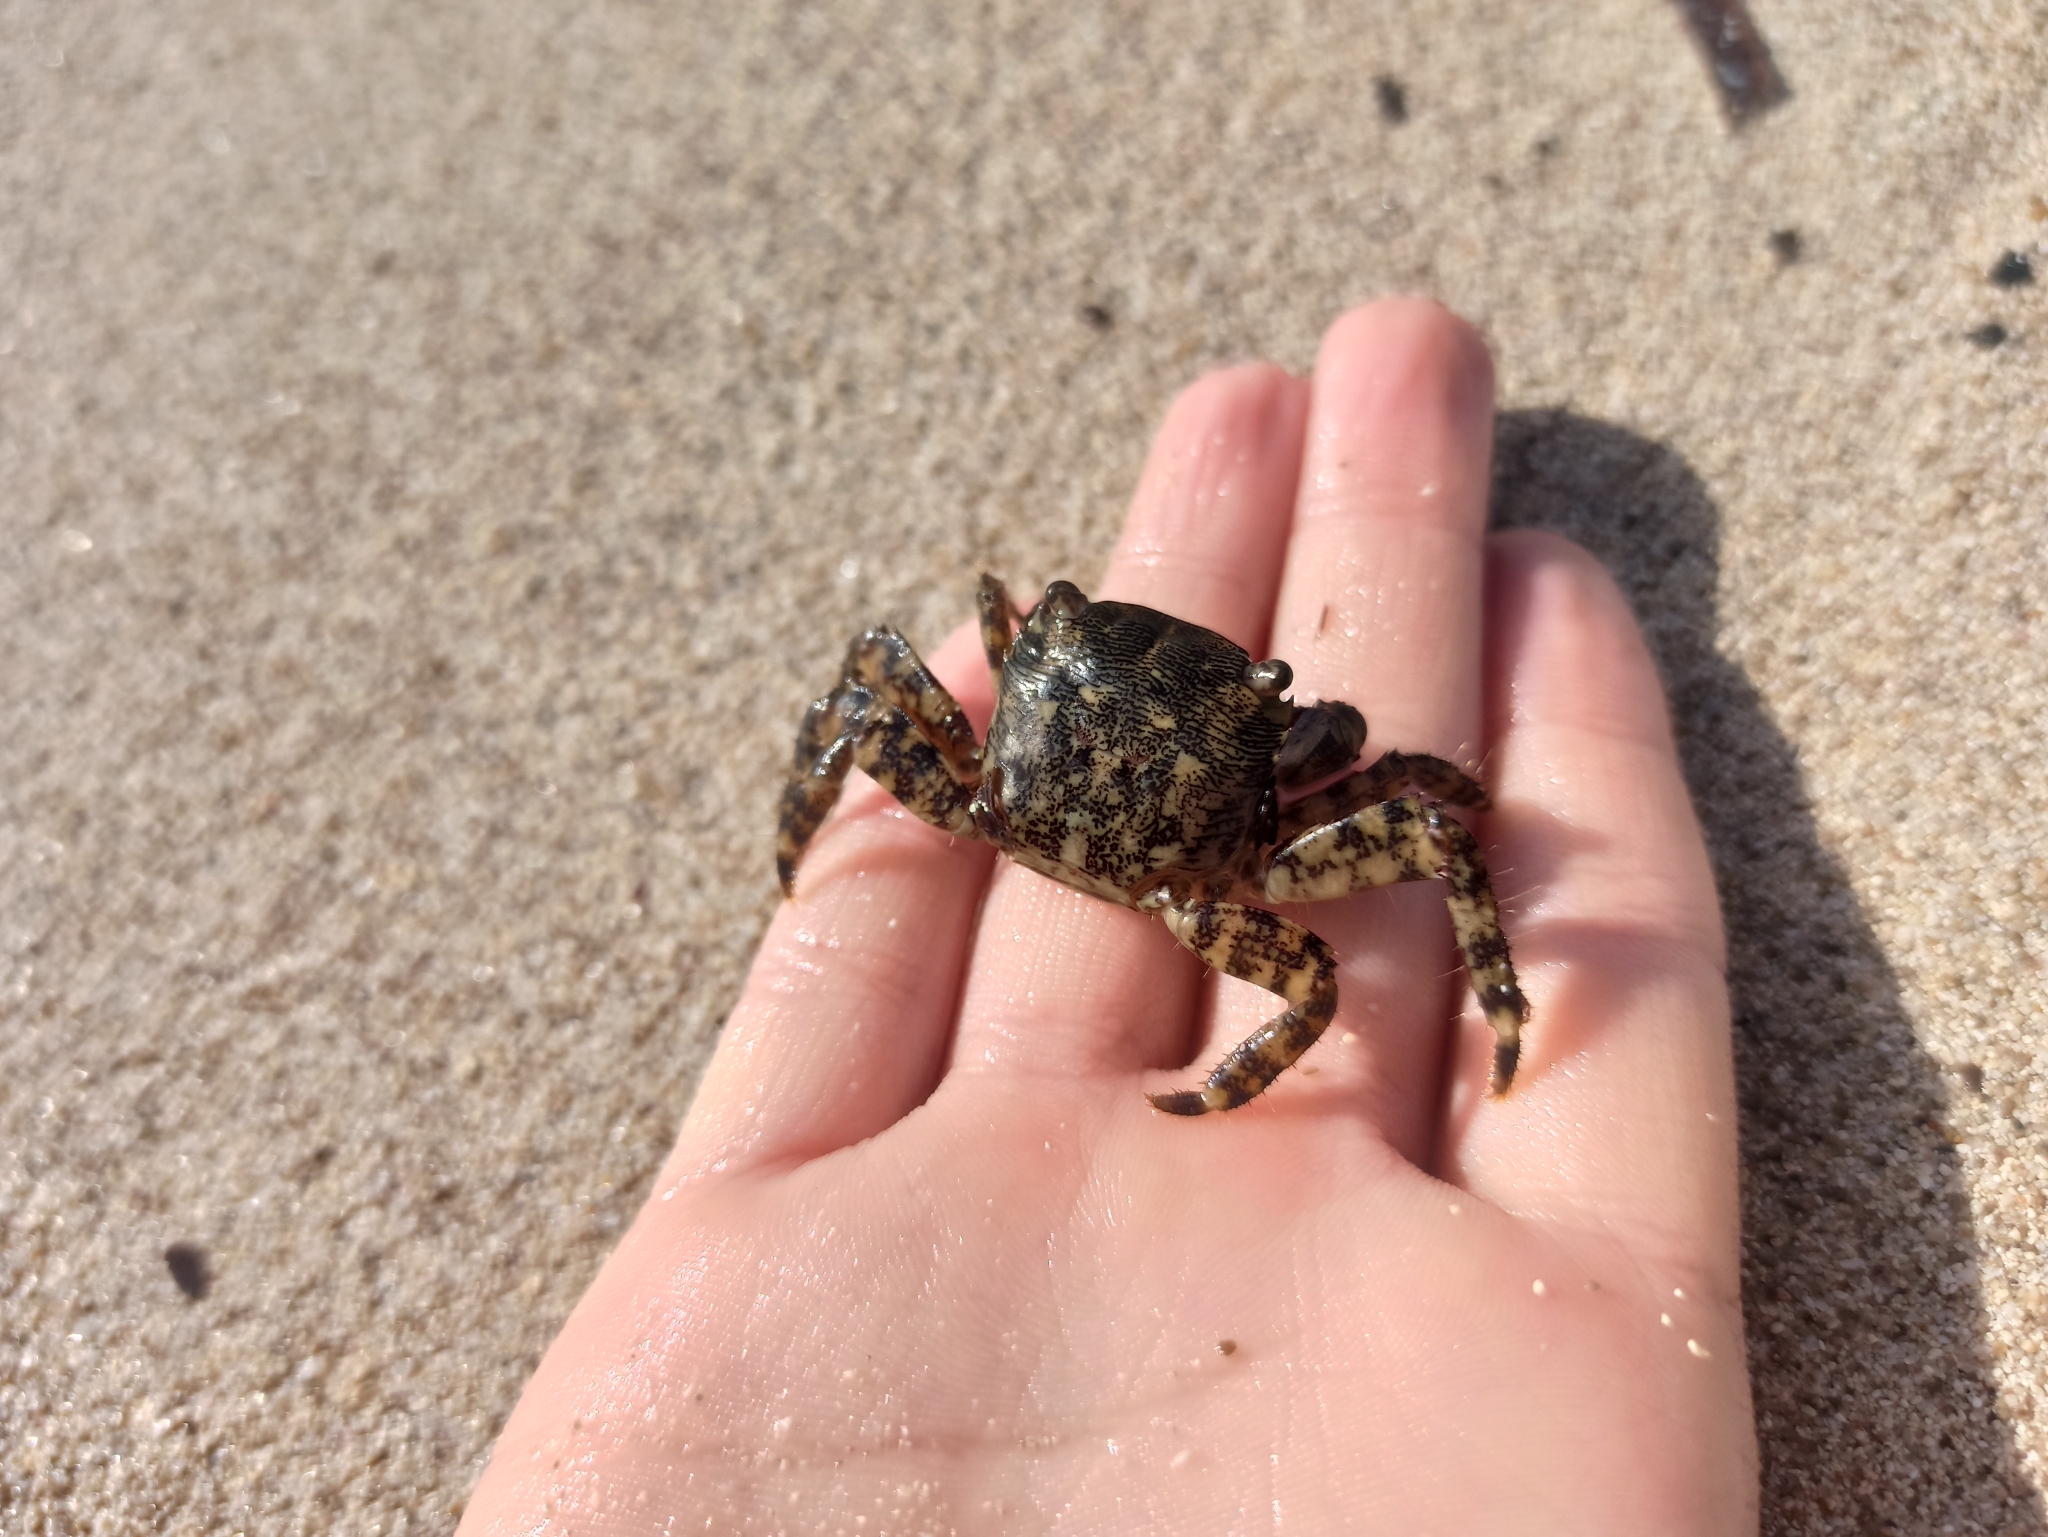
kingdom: Animalia
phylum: Arthropoda
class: Malacostraca
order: Decapoda
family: Grapsidae
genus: Pachygrapsus
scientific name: Pachygrapsus marmoratus
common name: Marbled rock crab
